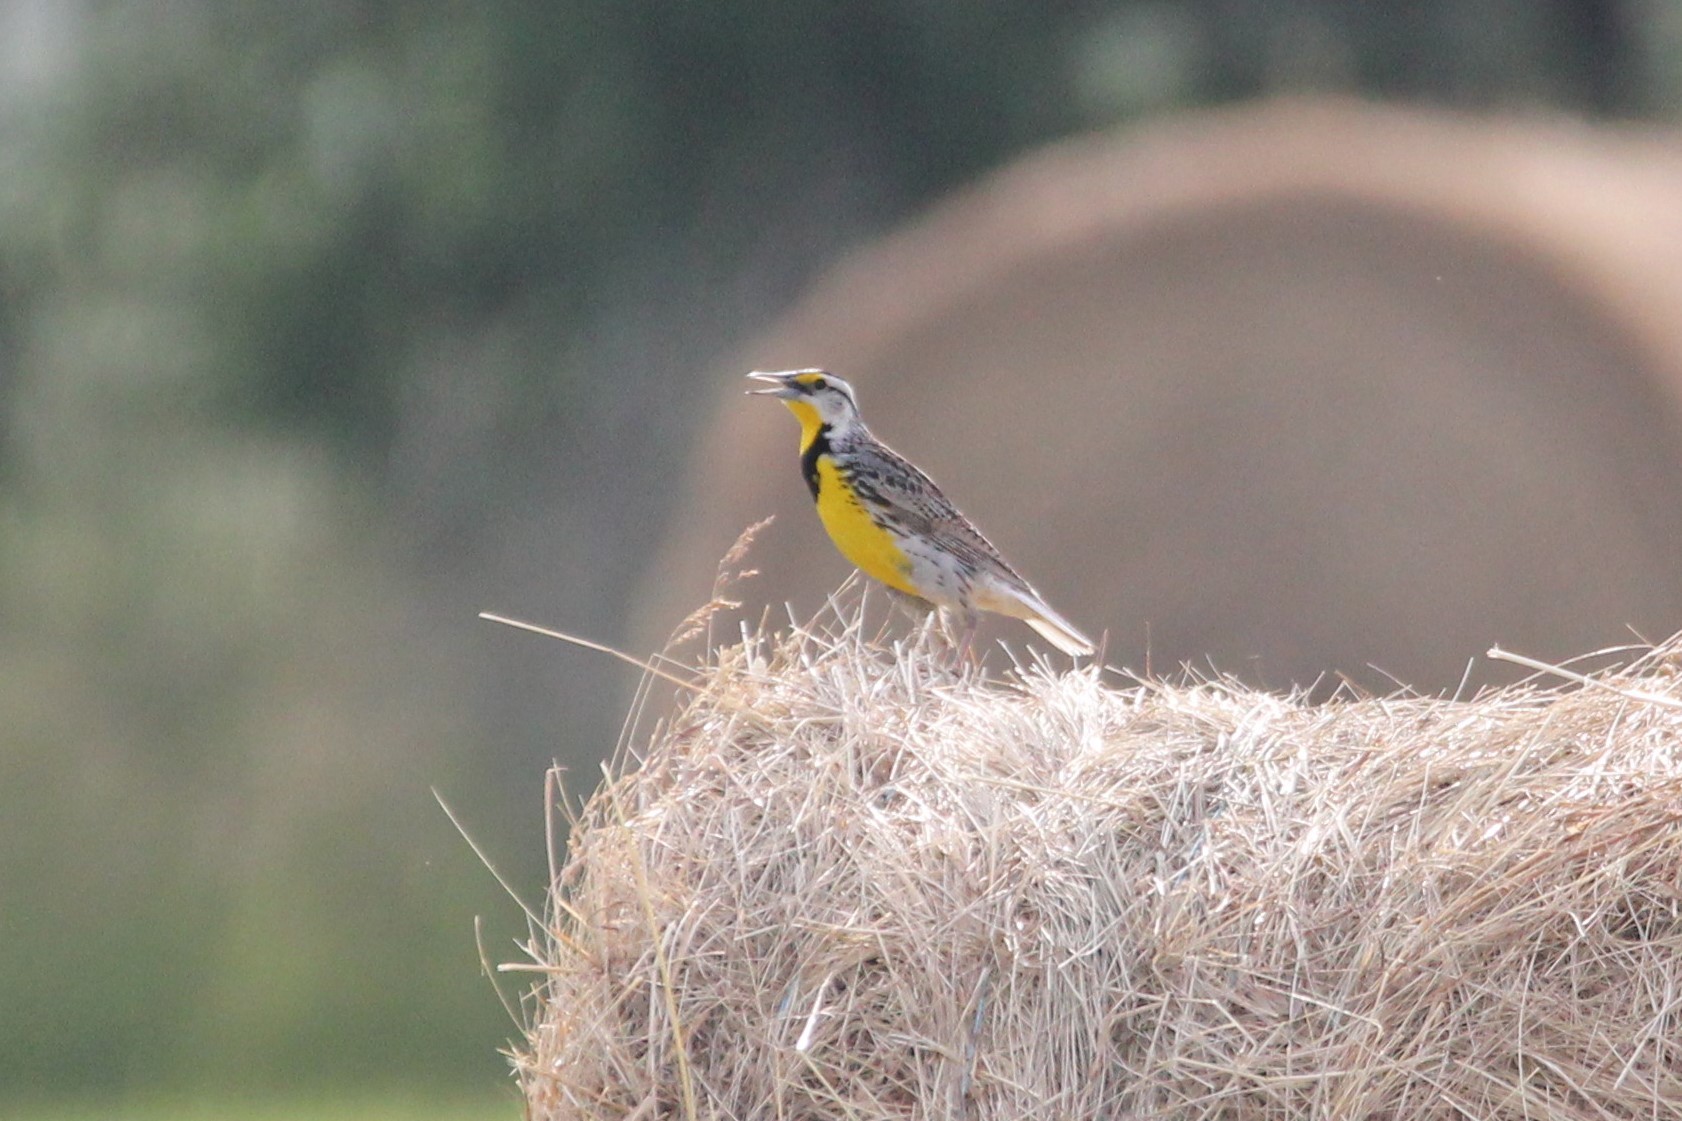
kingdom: Animalia
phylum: Chordata
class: Aves
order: Passeriformes
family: Icteridae
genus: Sturnella
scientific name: Sturnella magna
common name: Eastern meadowlark
